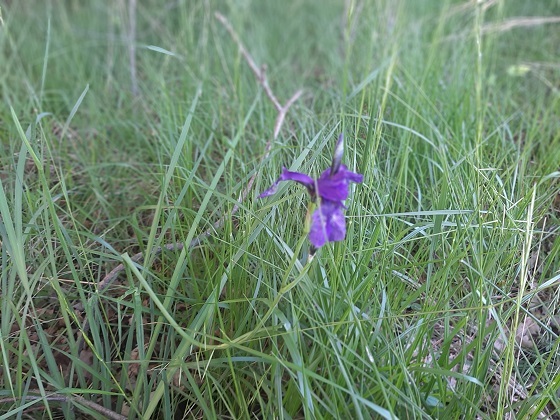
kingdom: Plantae
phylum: Tracheophyta
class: Liliopsida
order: Asparagales
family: Iridaceae
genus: Iris
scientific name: Iris sibirica
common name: Siberian iris
